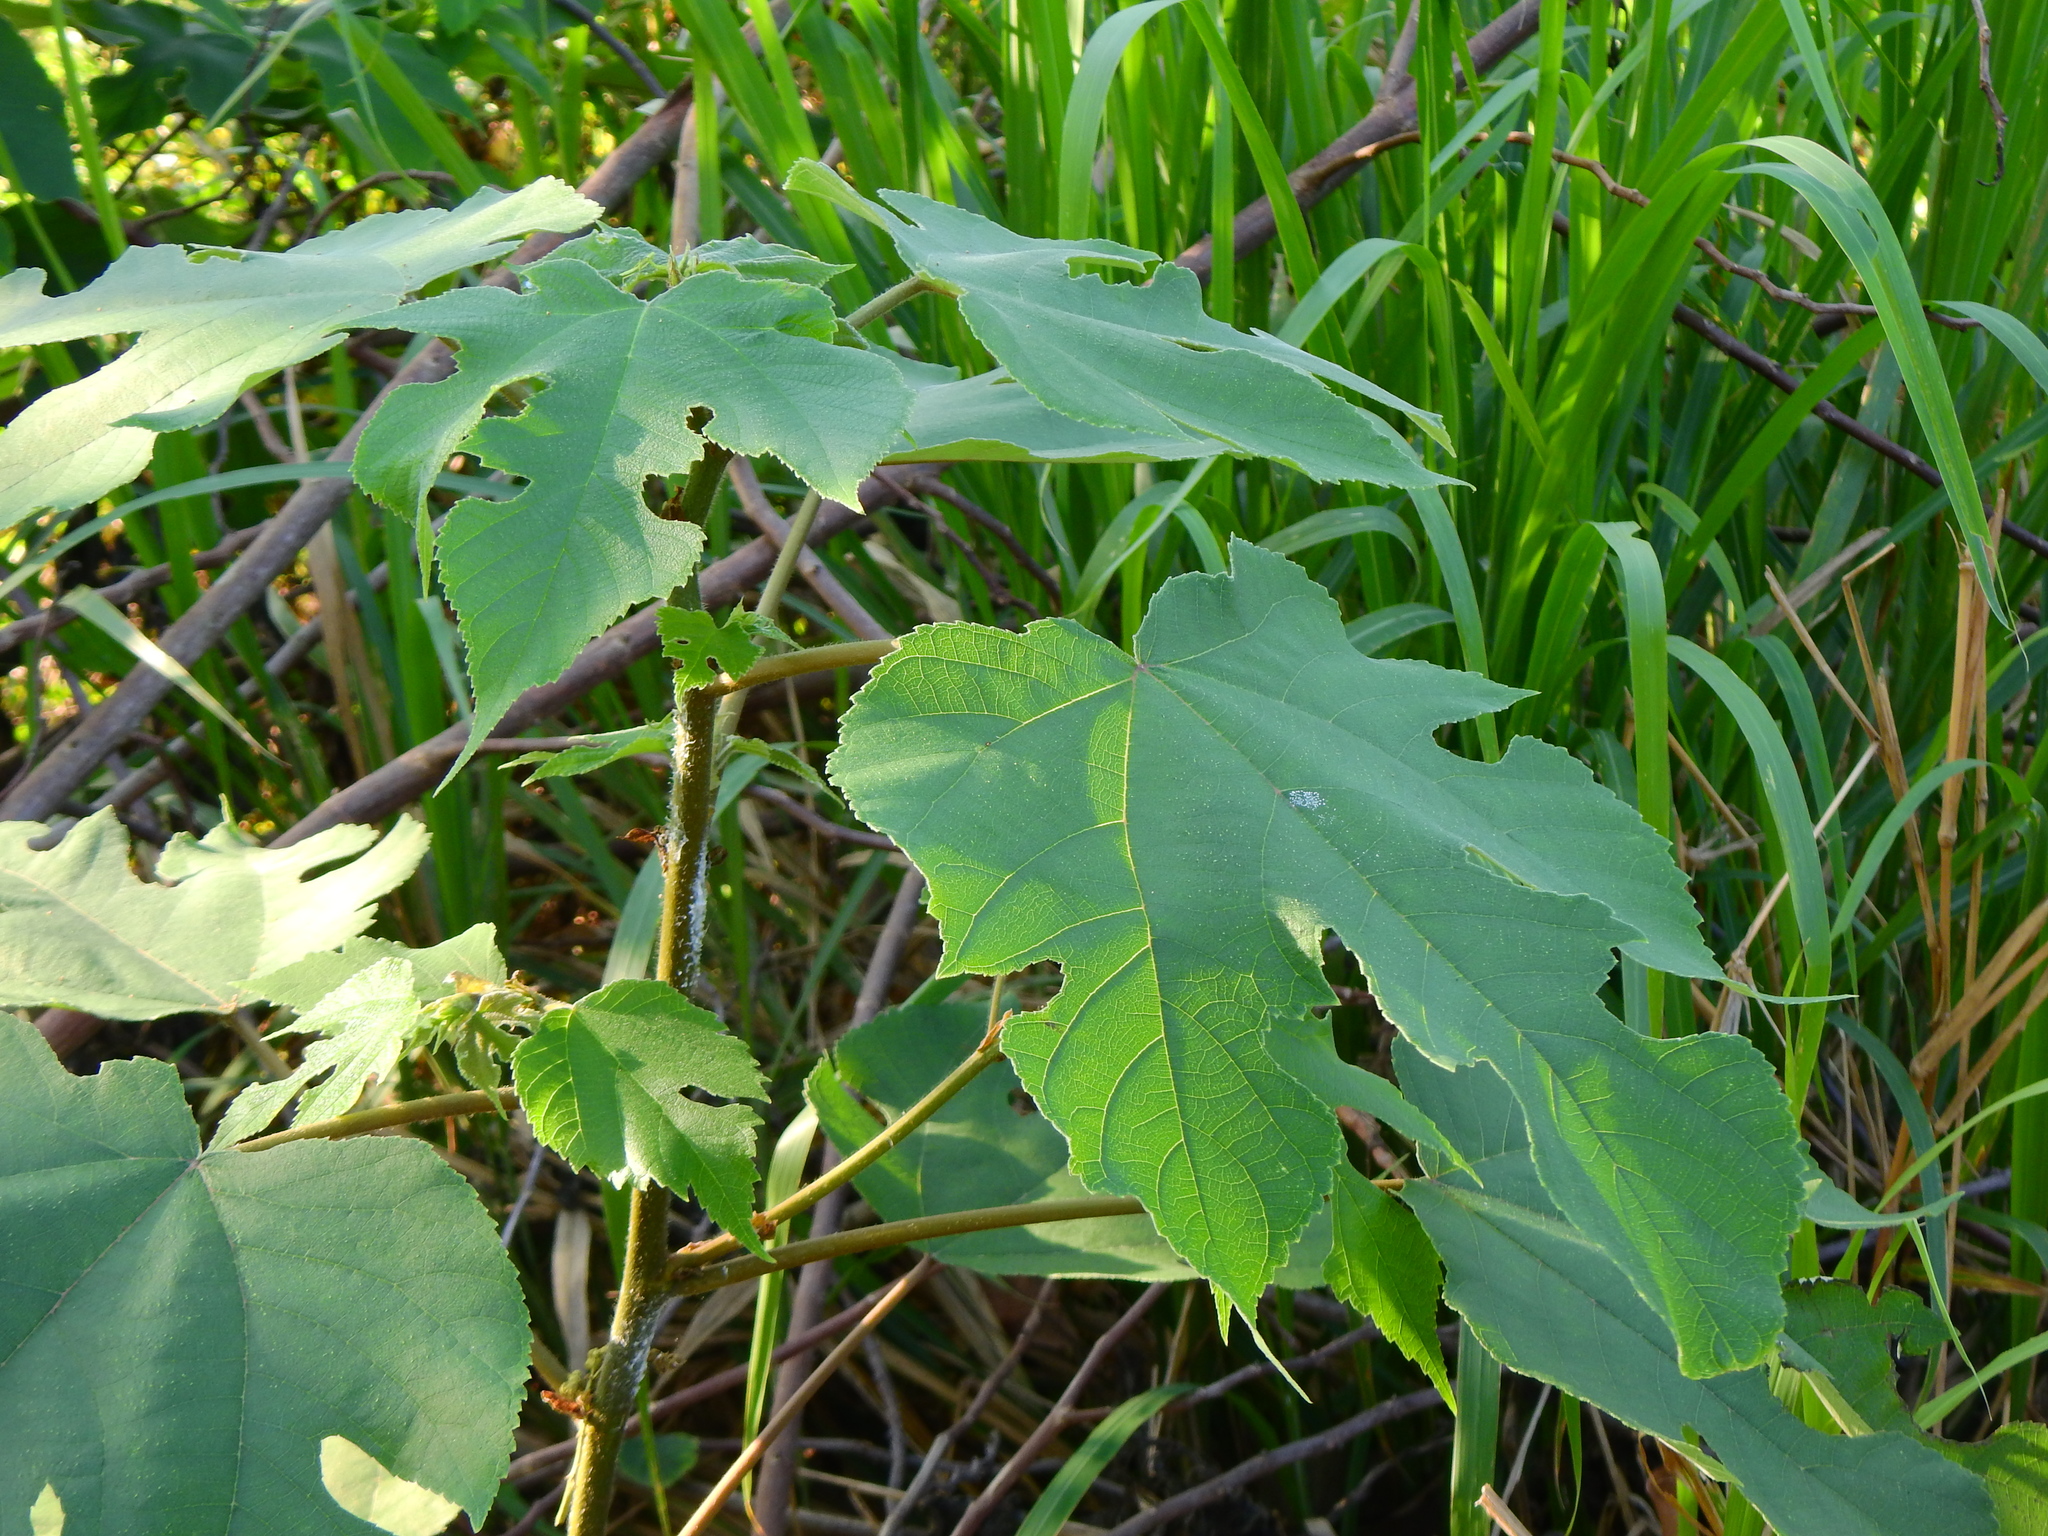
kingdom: Plantae
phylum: Tracheophyta
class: Magnoliopsida
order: Rosales
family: Moraceae
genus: Broussonetia
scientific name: Broussonetia papyrifera
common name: Paper mulberry
